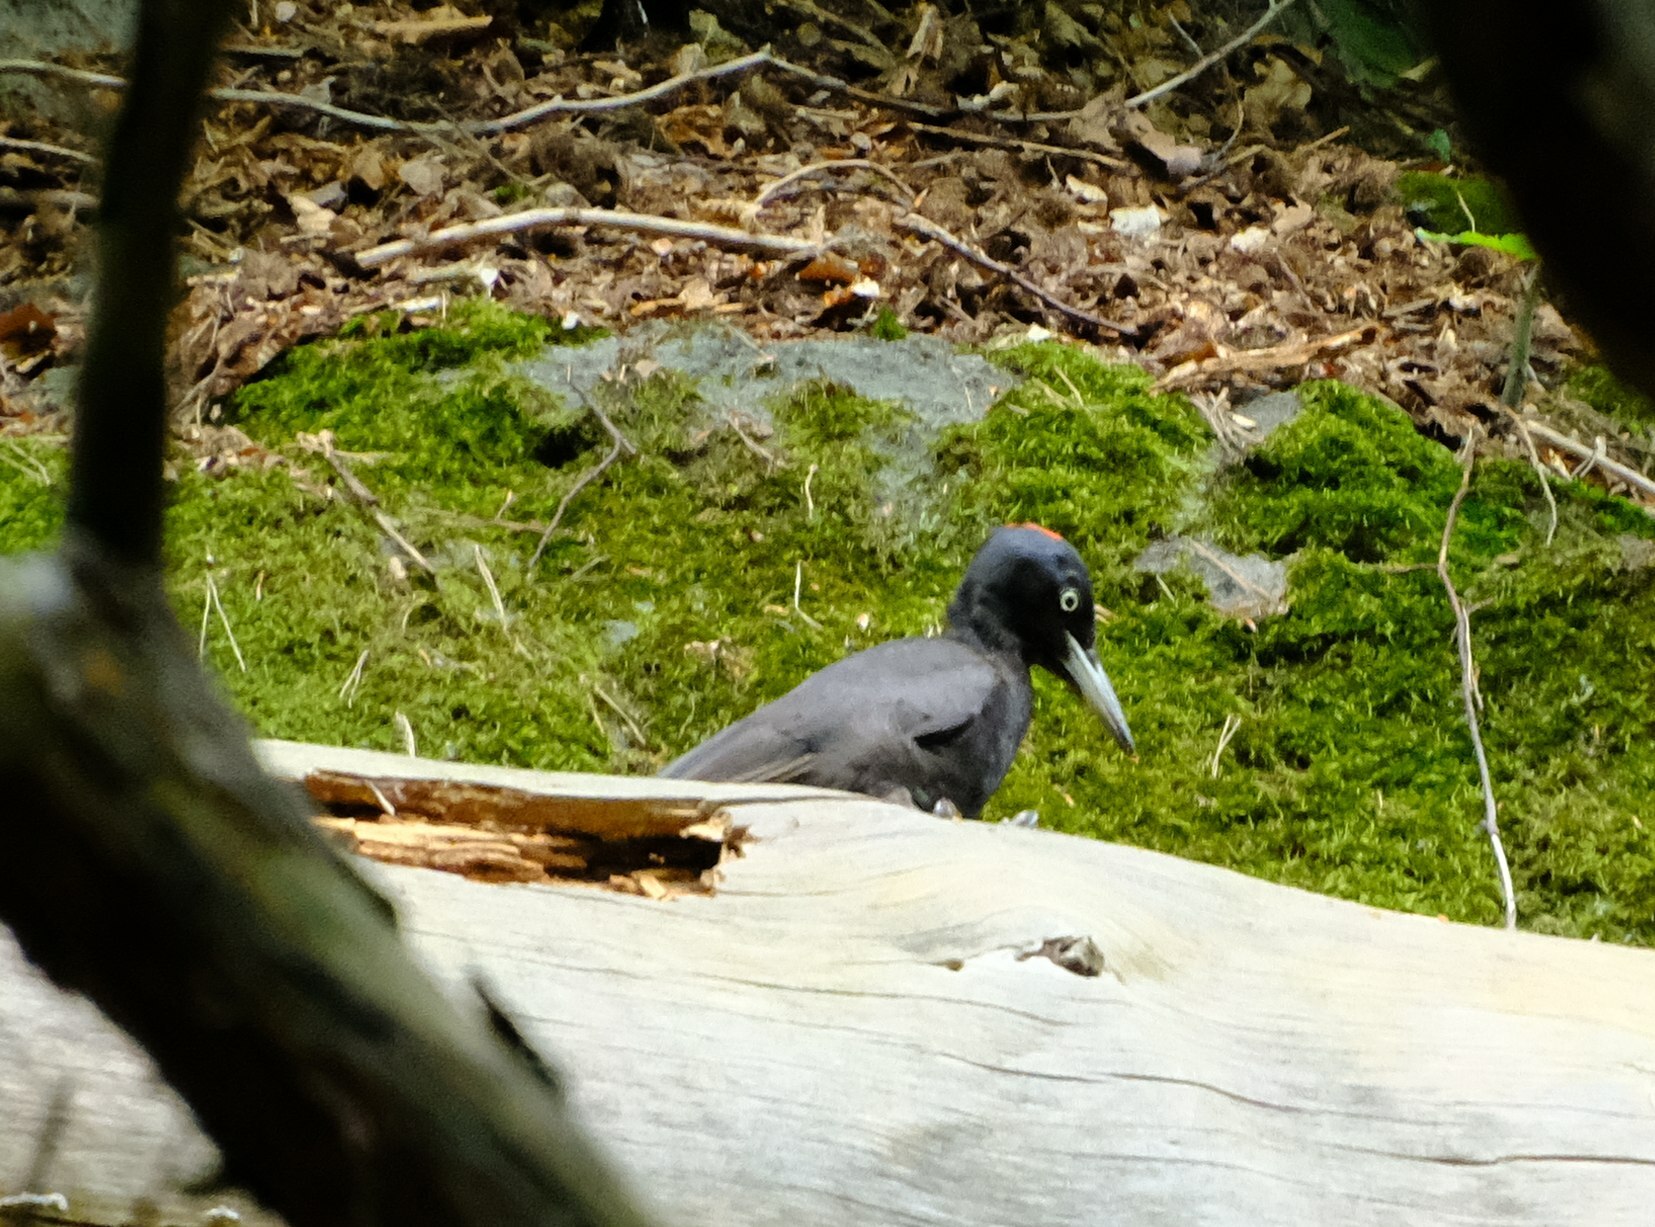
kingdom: Animalia
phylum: Chordata
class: Aves
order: Piciformes
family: Picidae
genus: Dryocopus
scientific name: Dryocopus martius
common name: Black woodpecker
